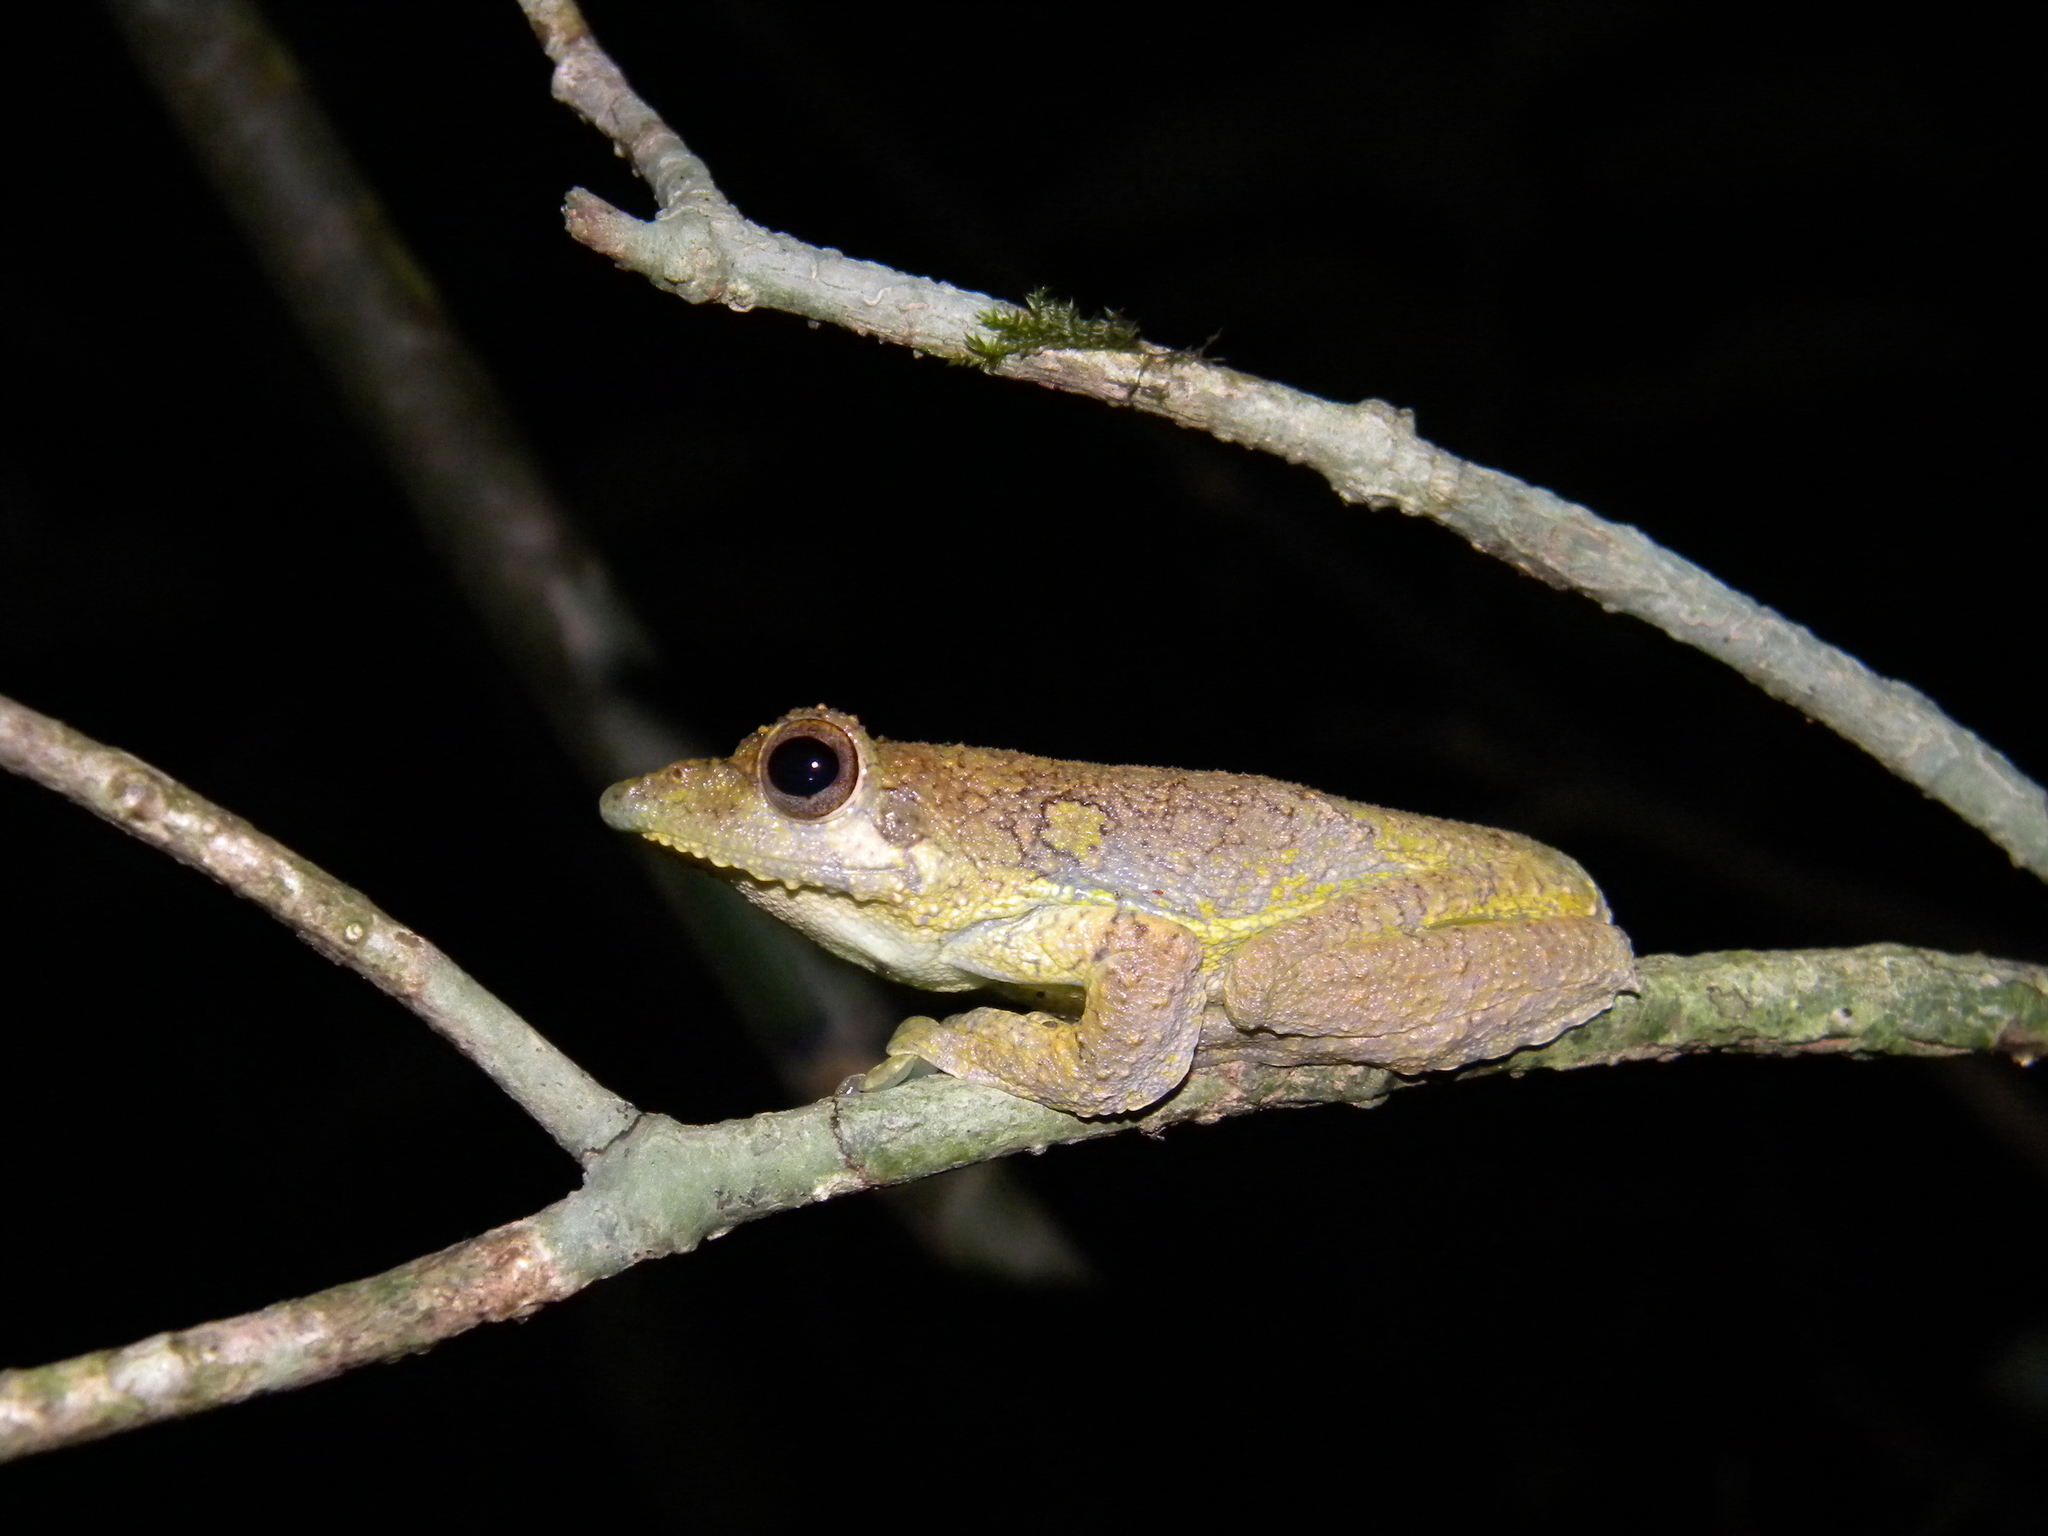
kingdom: Animalia
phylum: Chordata
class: Amphibia
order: Anura
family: Rhacophoridae
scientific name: Rhacophoridae
